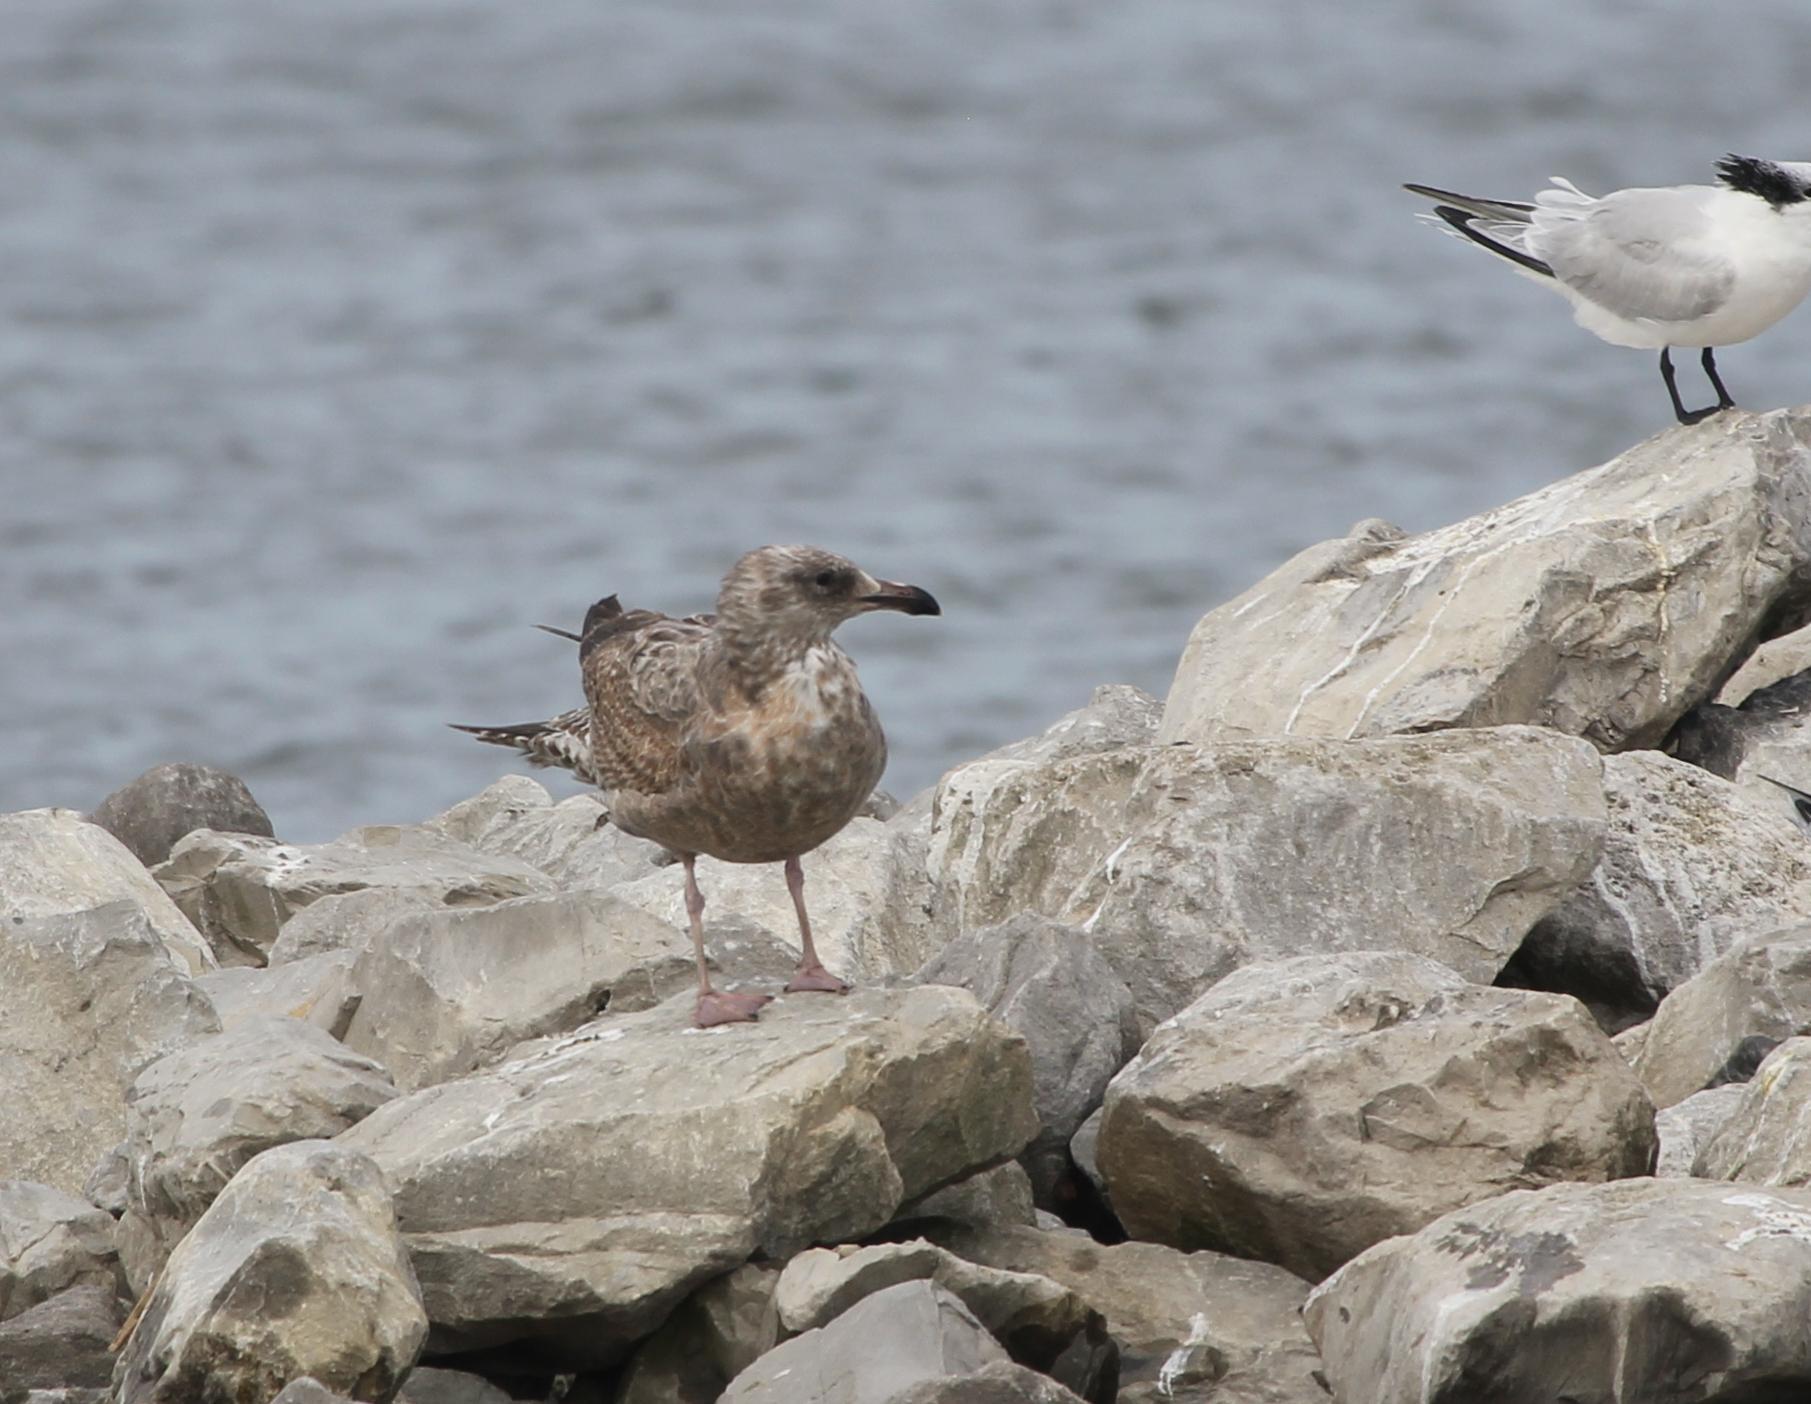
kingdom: Animalia
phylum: Chordata
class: Aves
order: Charadriiformes
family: Laridae
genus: Larus
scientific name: Larus argentatus
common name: Herring gull
